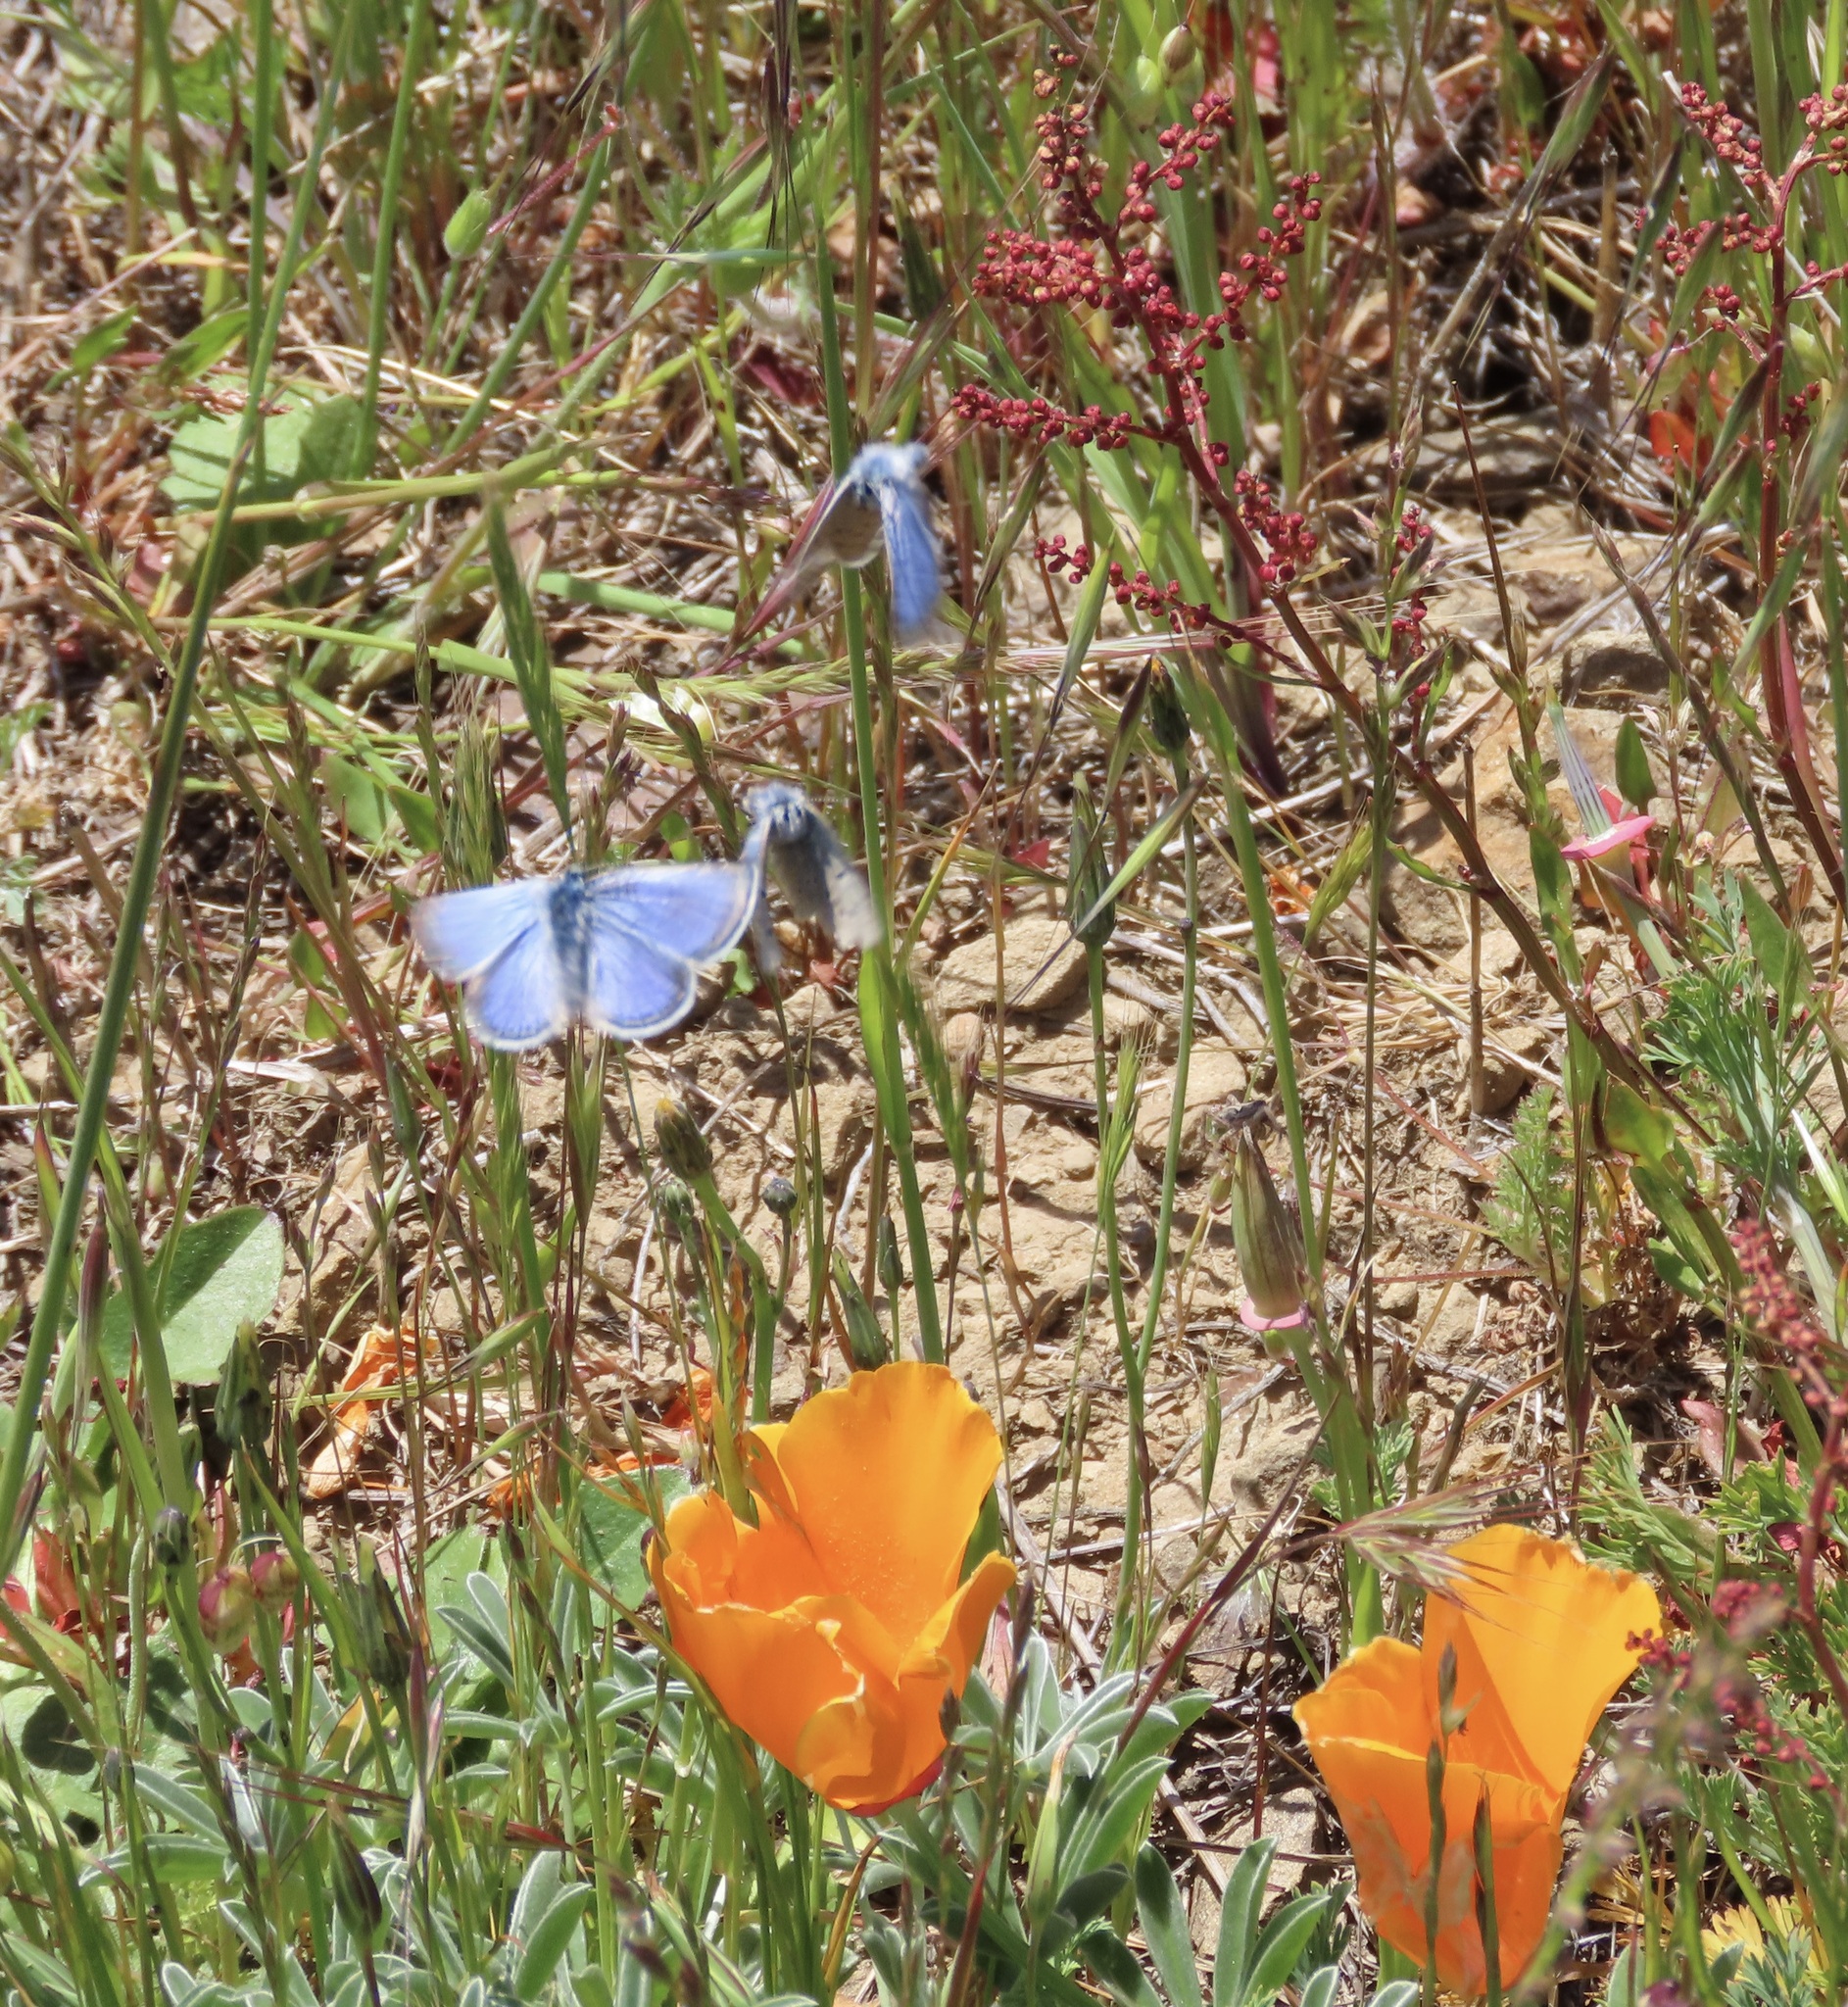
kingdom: Animalia
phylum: Arthropoda
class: Insecta
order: Lepidoptera
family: Lycaenidae
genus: Icaricia
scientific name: Icaricia icarioides
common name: Boisduval's blue
